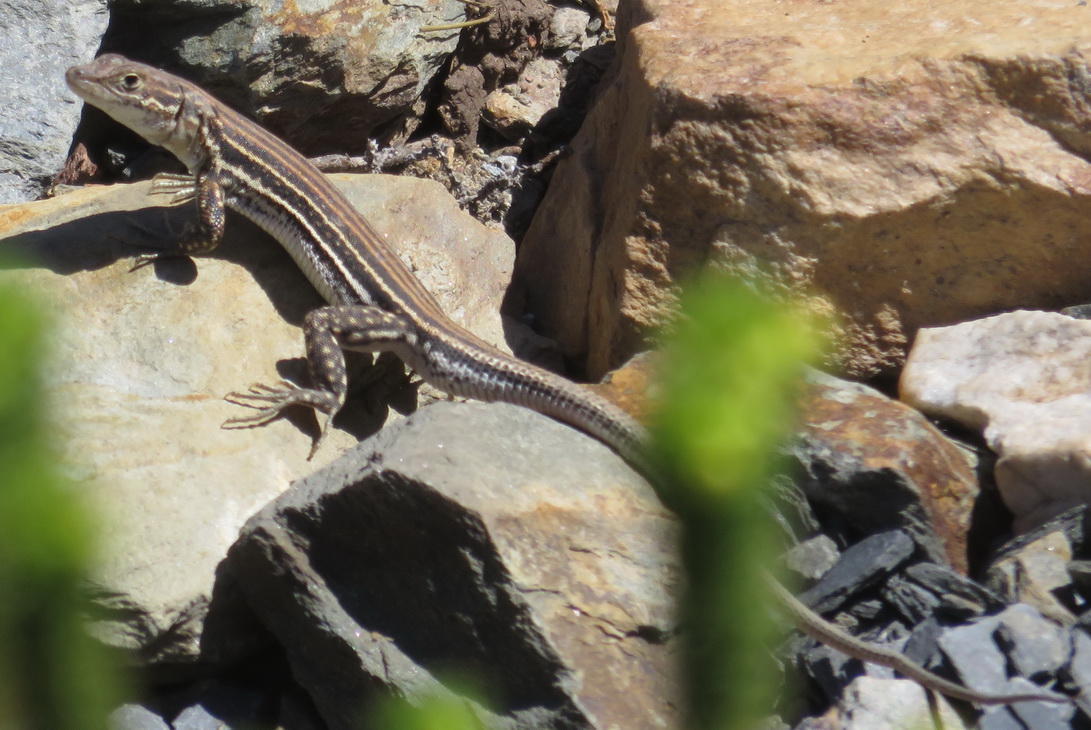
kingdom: Animalia
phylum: Chordata
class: Squamata
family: Lacertidae
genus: Pedioplanis
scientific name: Pedioplanis burchelli
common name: Burchell's sand lizard
